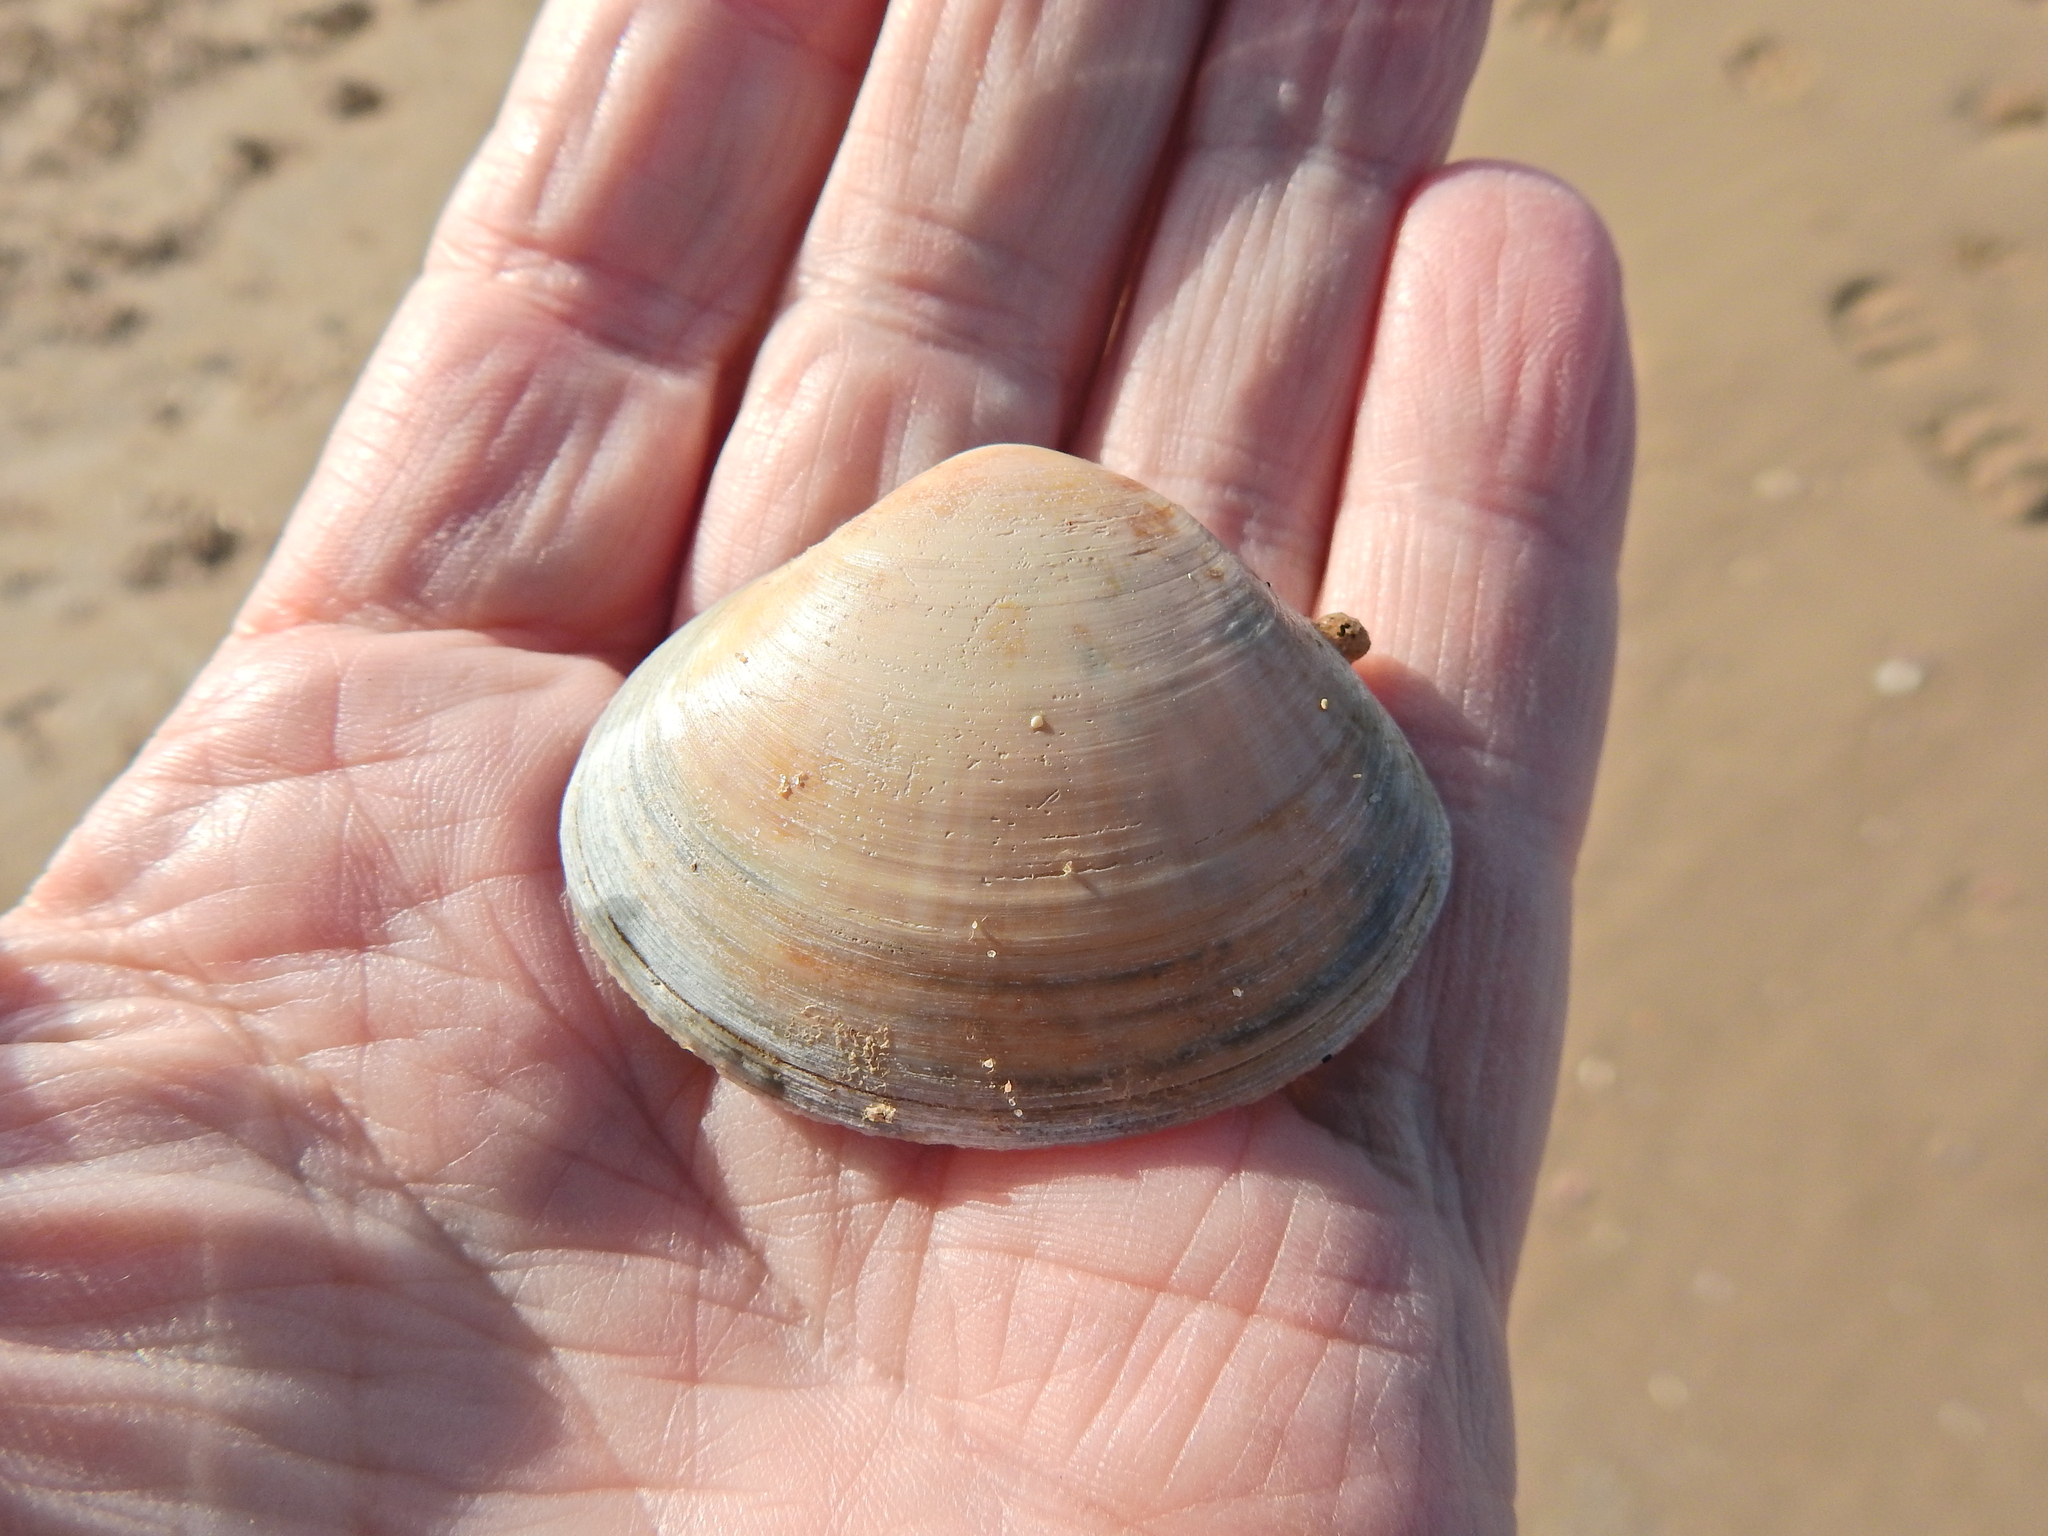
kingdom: Animalia
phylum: Mollusca
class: Bivalvia
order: Venerida
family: Mactridae
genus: Mactra
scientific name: Mactra stultorum
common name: Rayed trough shell
